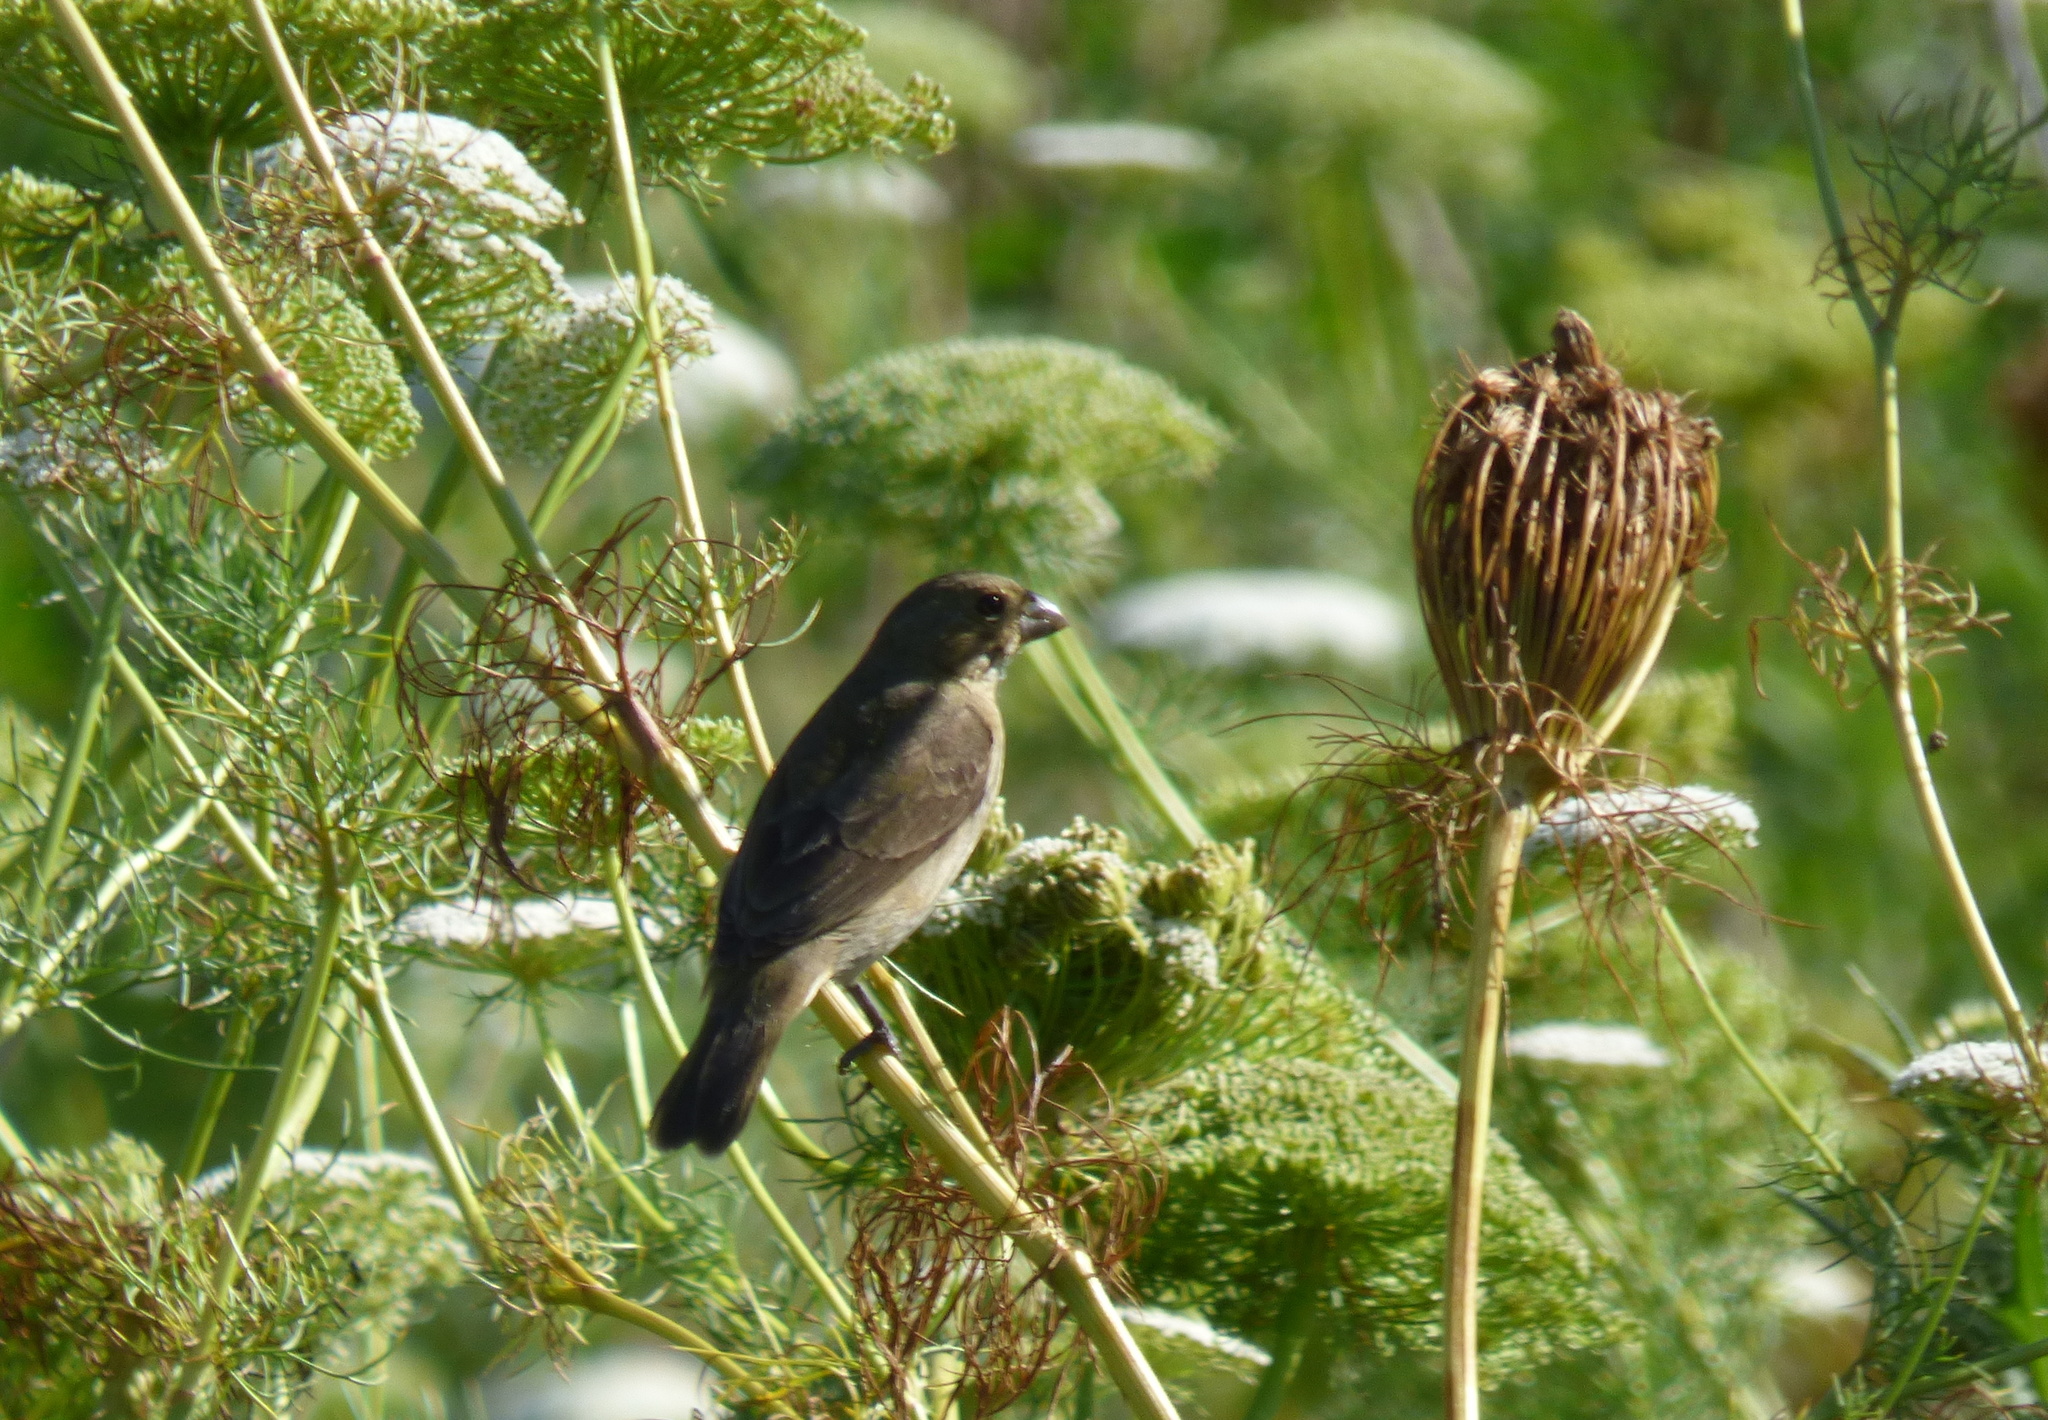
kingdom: Animalia
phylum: Chordata
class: Aves
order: Passeriformes
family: Thraupidae
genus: Sporophila
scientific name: Sporophila caerulescens
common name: Double-collared seedeater
